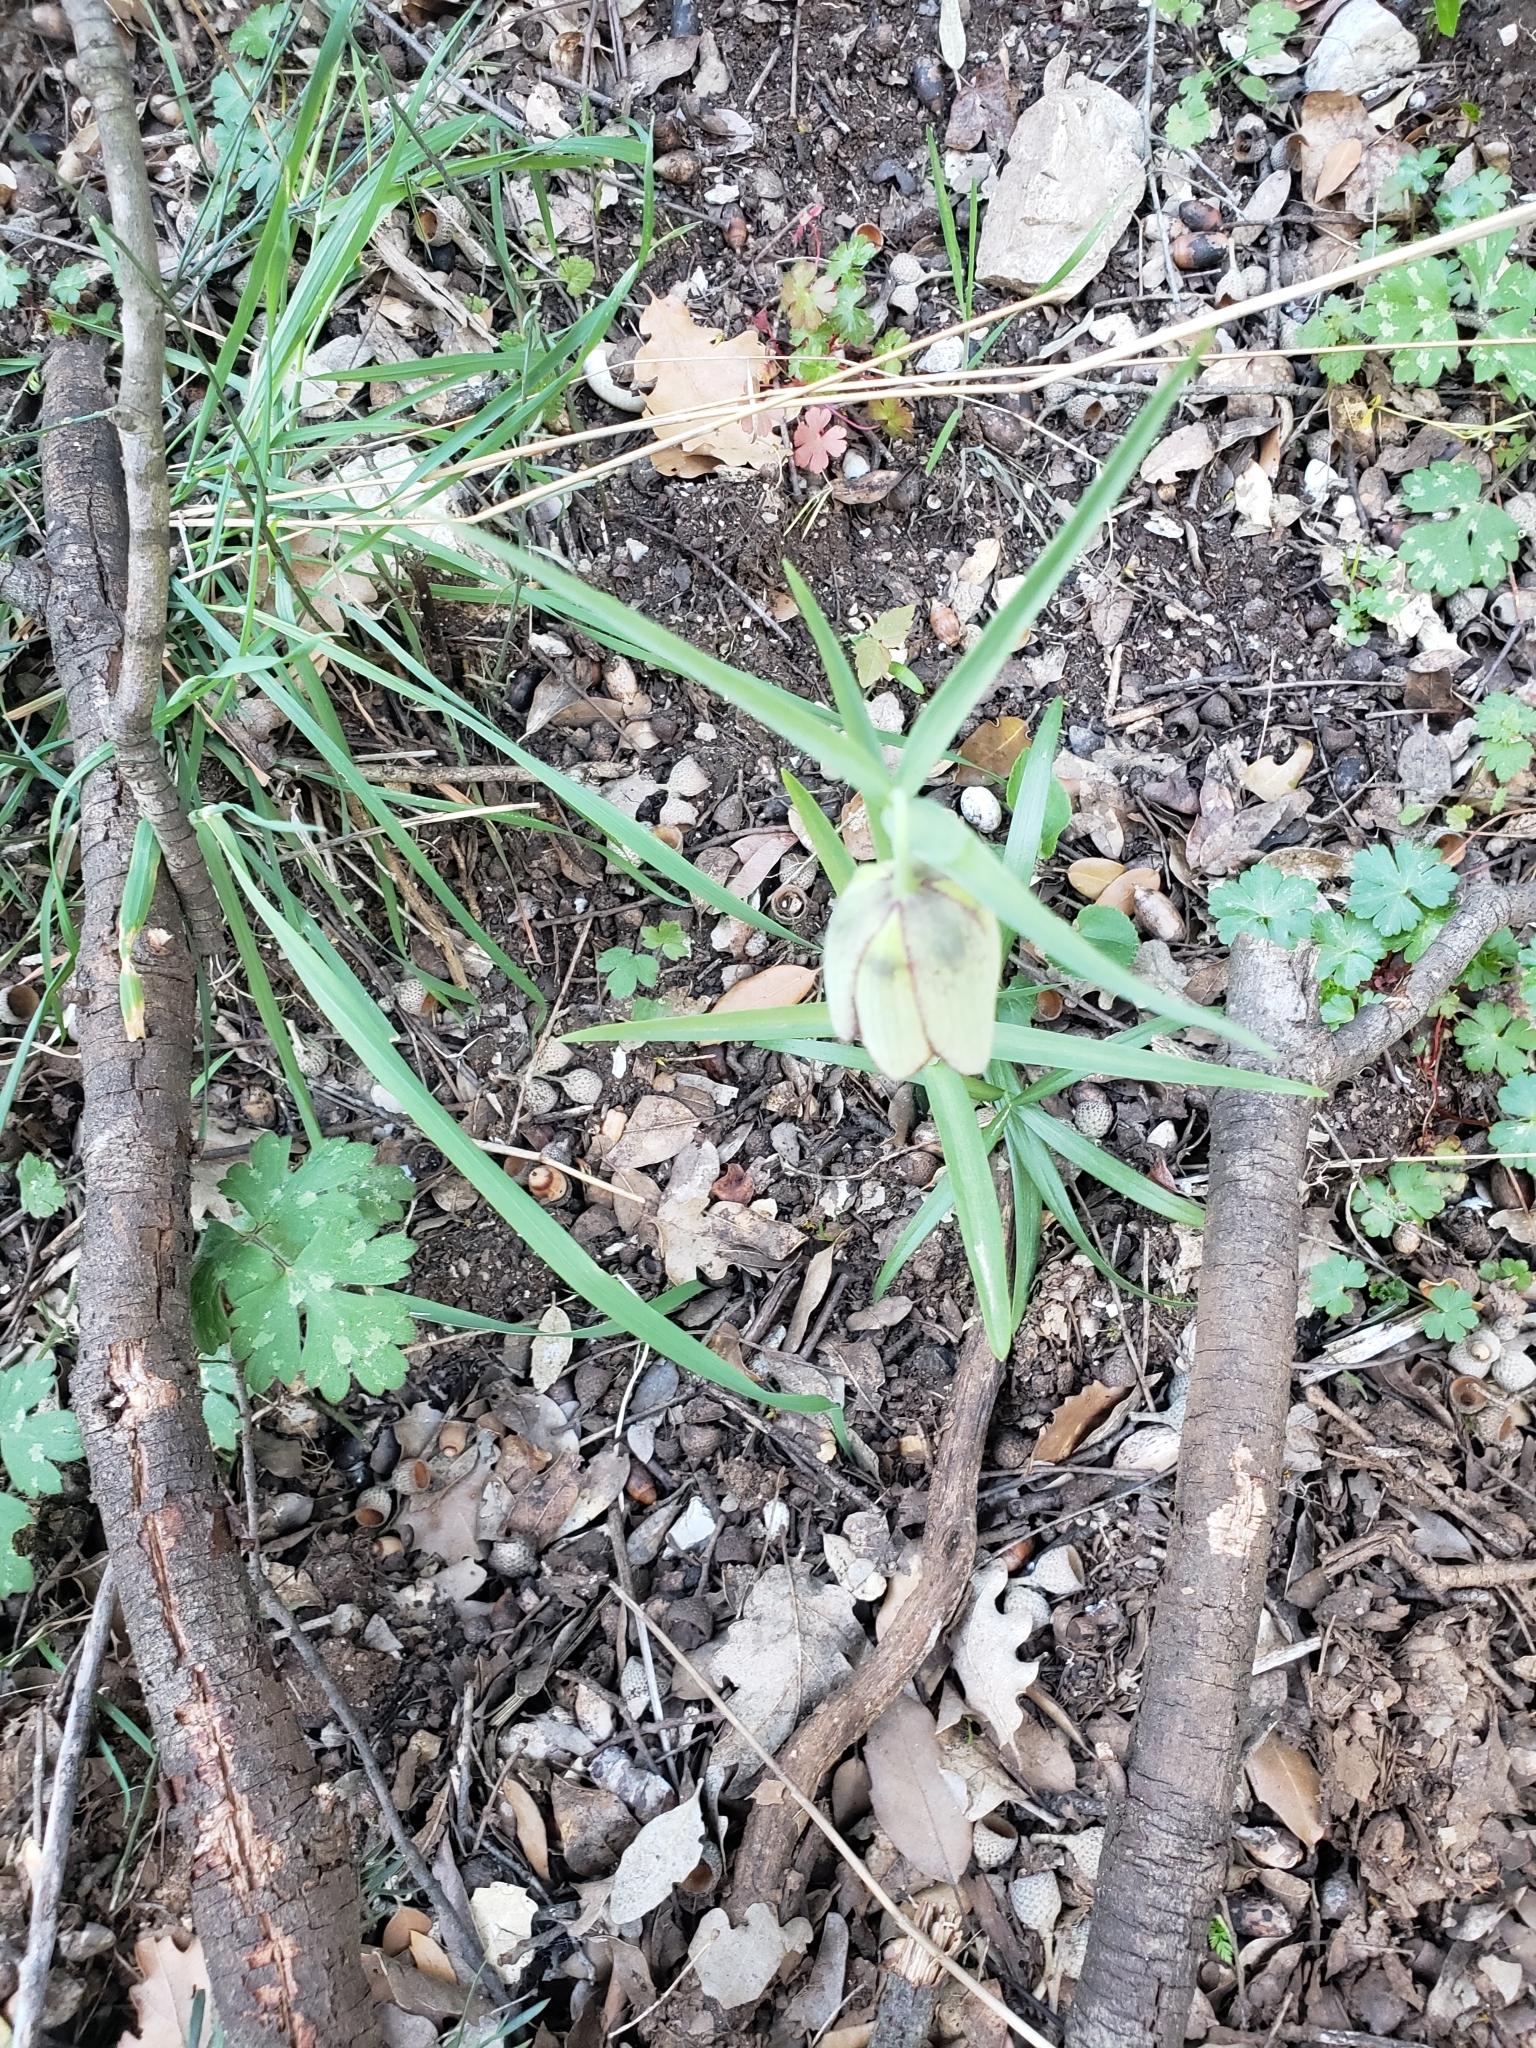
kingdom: Plantae
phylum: Tracheophyta
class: Liliopsida
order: Liliales
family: Liliaceae
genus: Fritillaria
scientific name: Fritillaria involucrata
